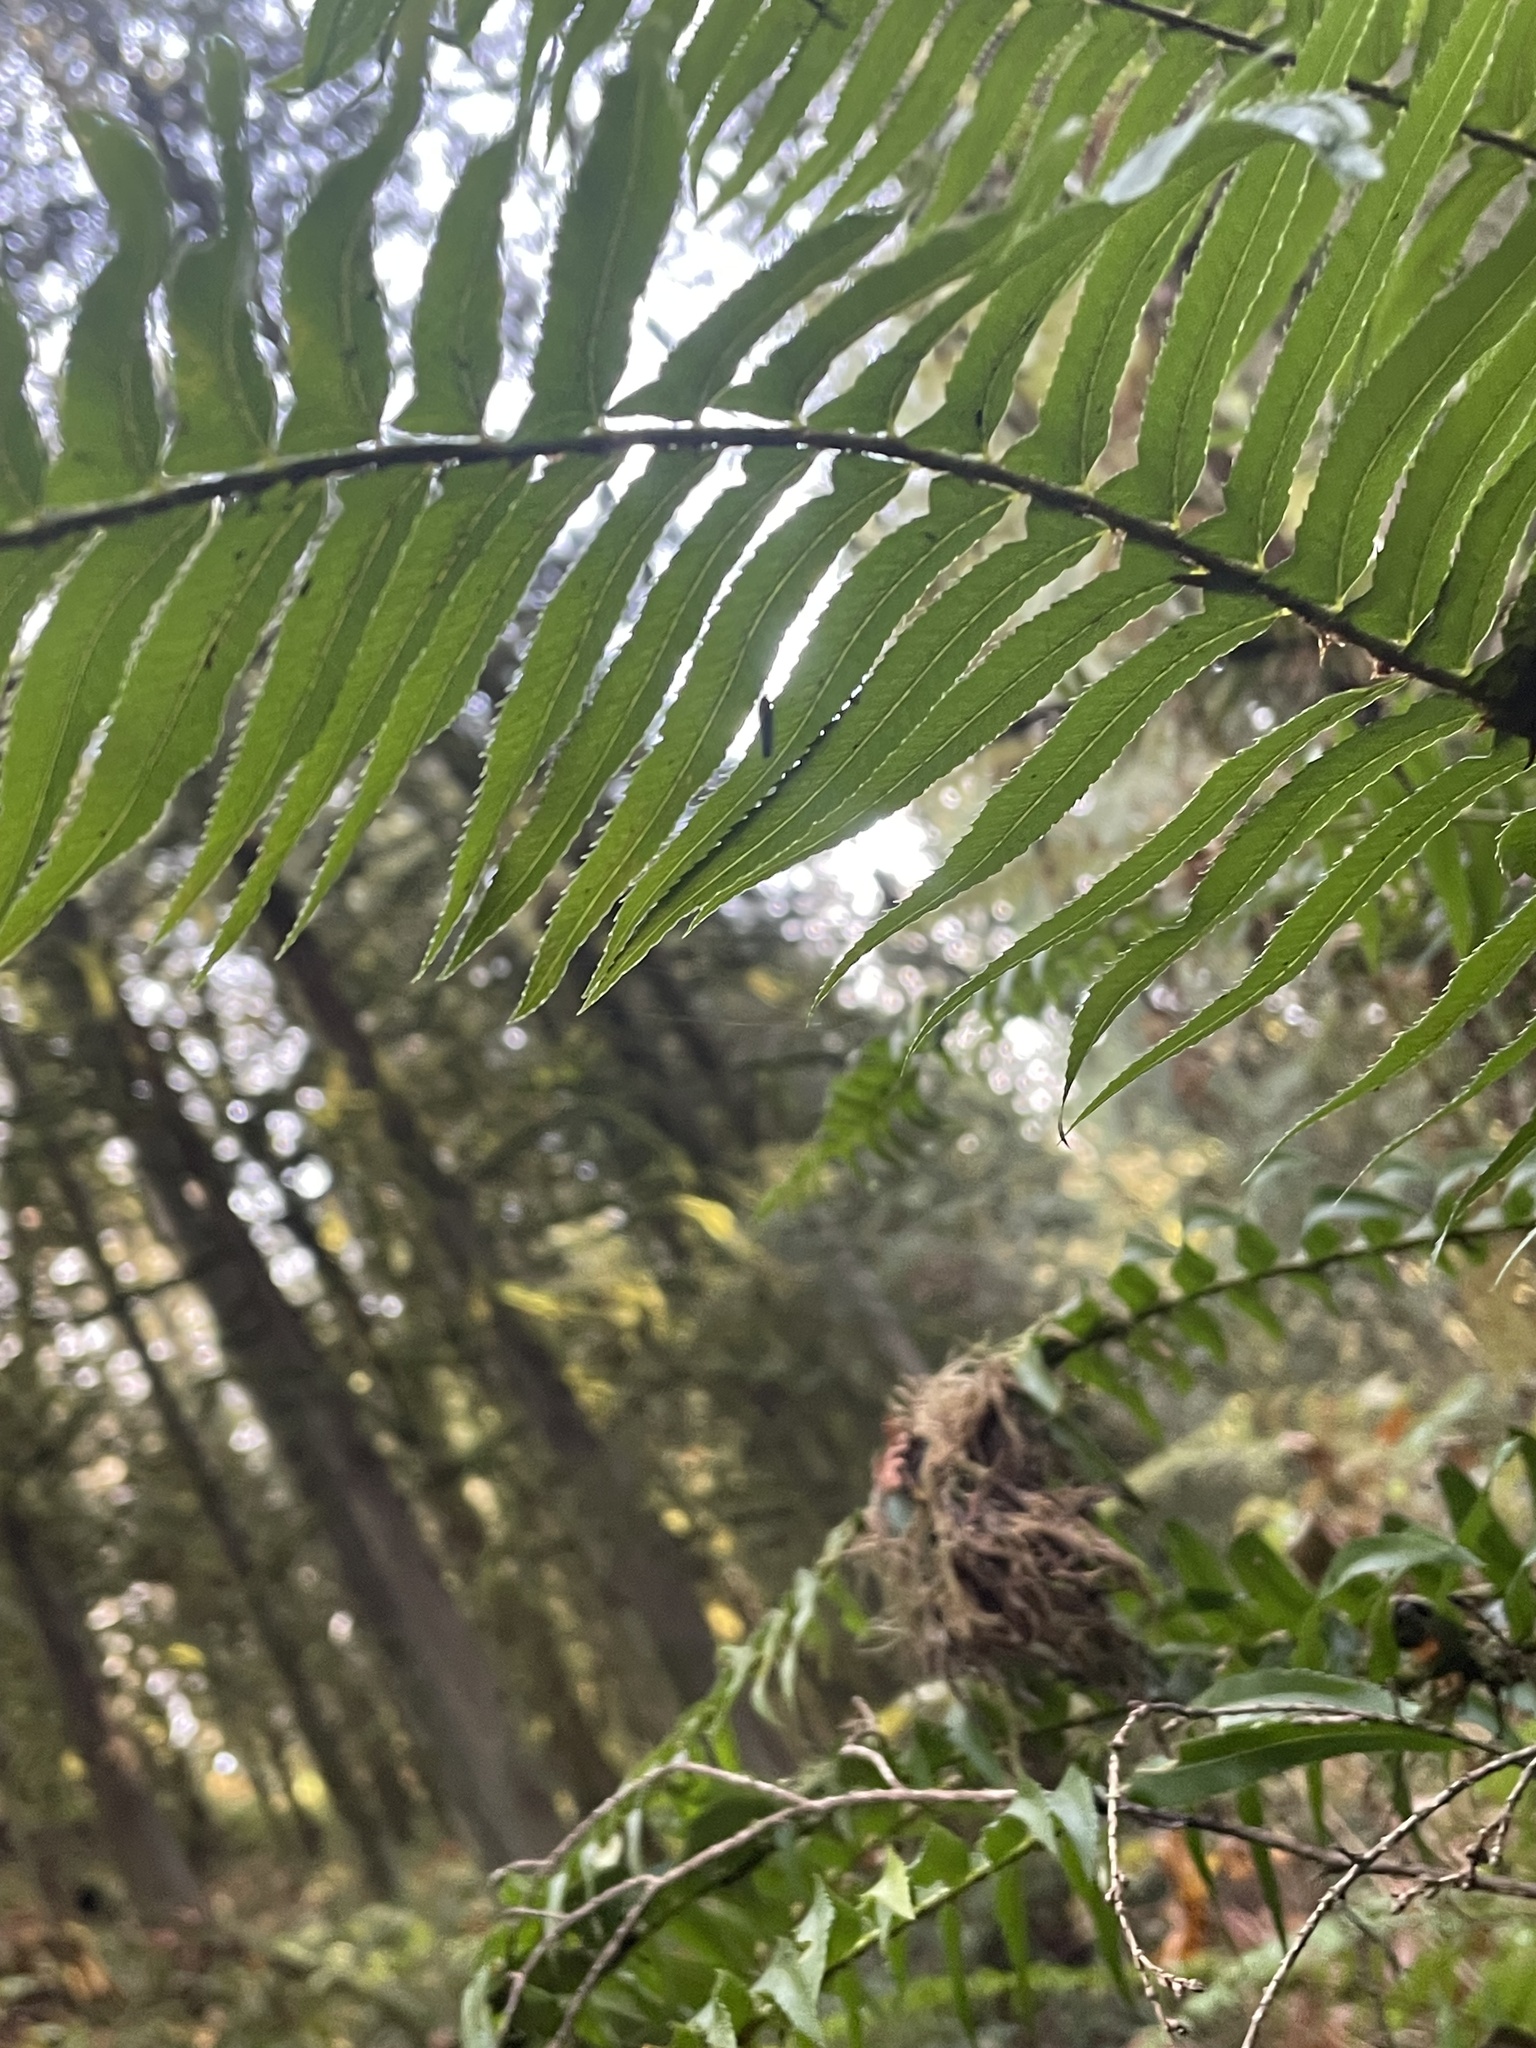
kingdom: Plantae
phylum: Tracheophyta
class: Polypodiopsida
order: Polypodiales
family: Dryopteridaceae
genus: Polystichum
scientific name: Polystichum munitum
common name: Western sword-fern
